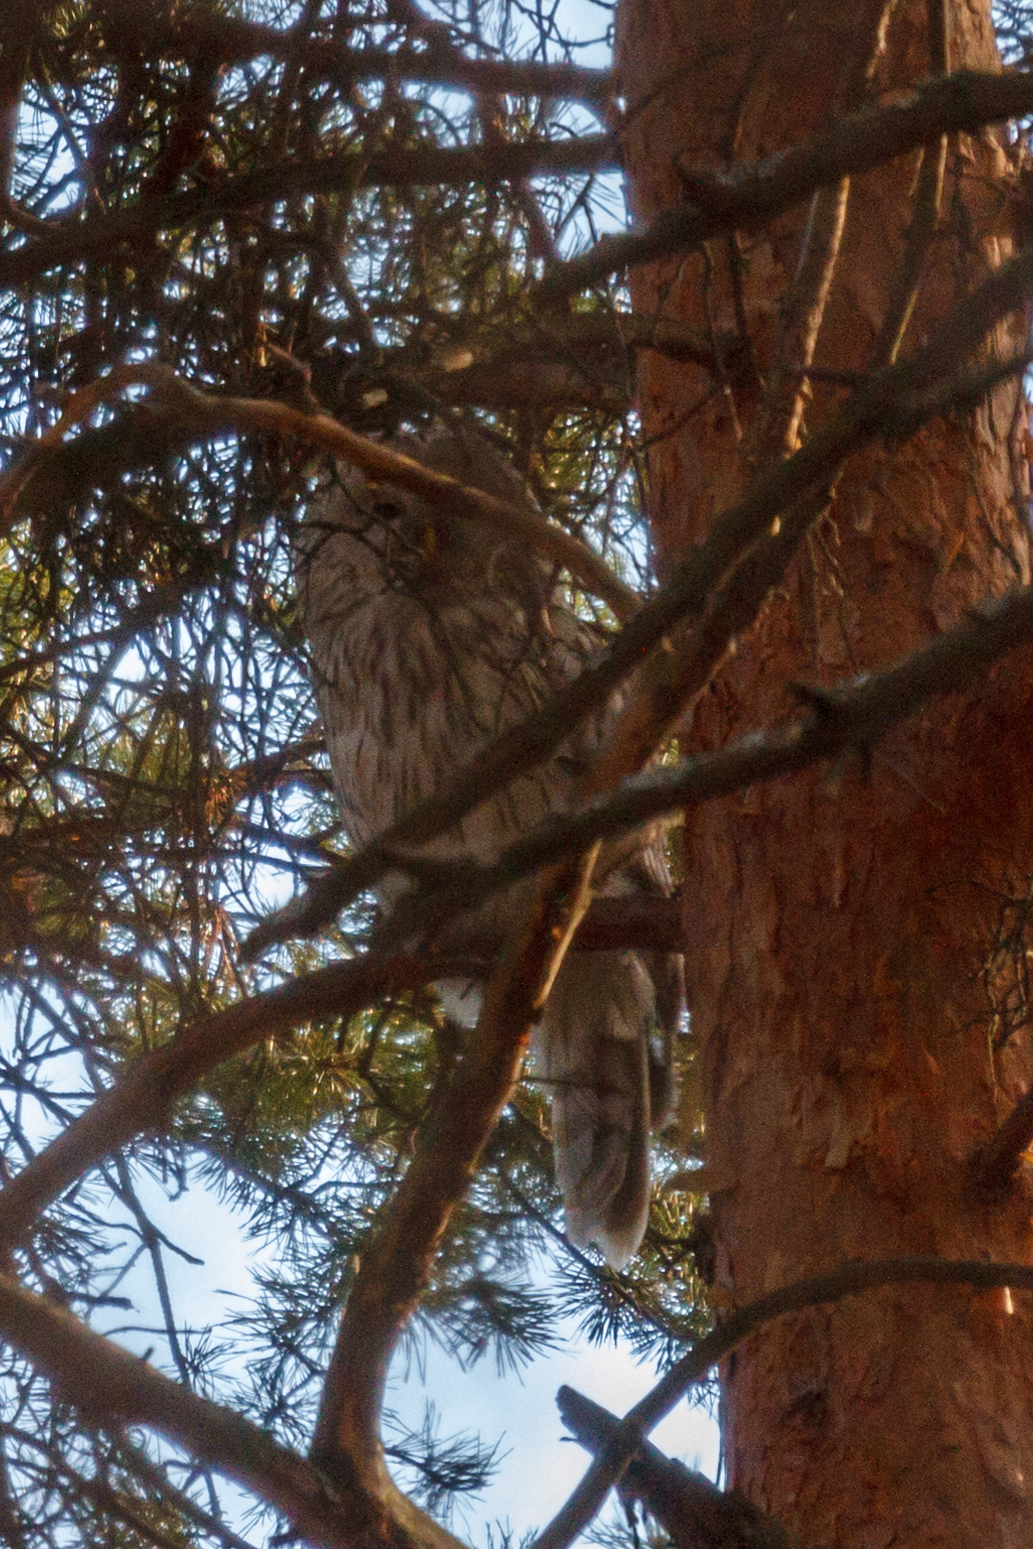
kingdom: Animalia
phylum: Chordata
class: Aves
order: Strigiformes
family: Strigidae
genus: Strix
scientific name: Strix uralensis
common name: Ural owl
